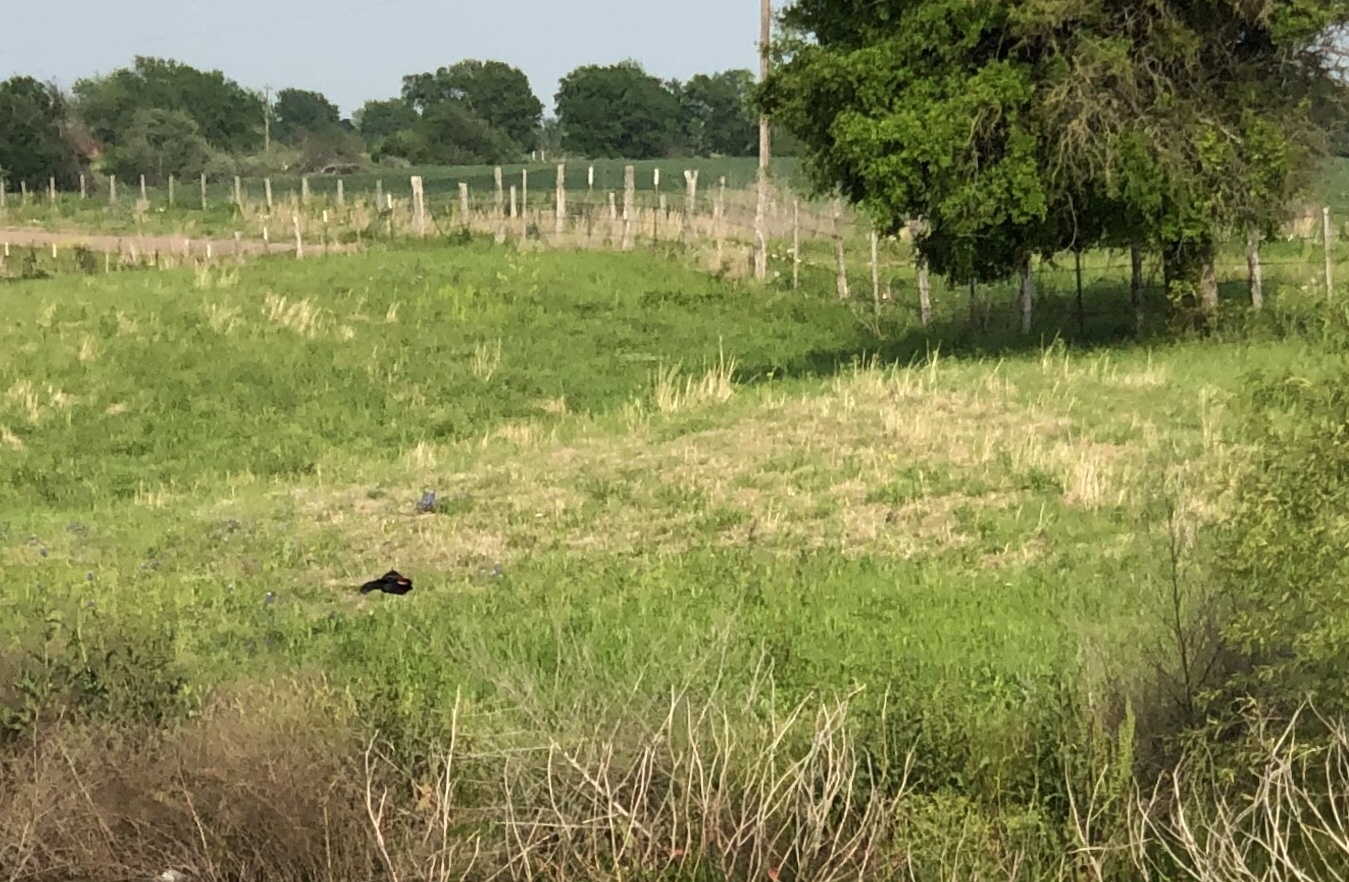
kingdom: Animalia
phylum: Chordata
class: Aves
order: Passeriformes
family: Icteridae
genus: Agelaius
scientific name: Agelaius phoeniceus
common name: Red-winged blackbird
